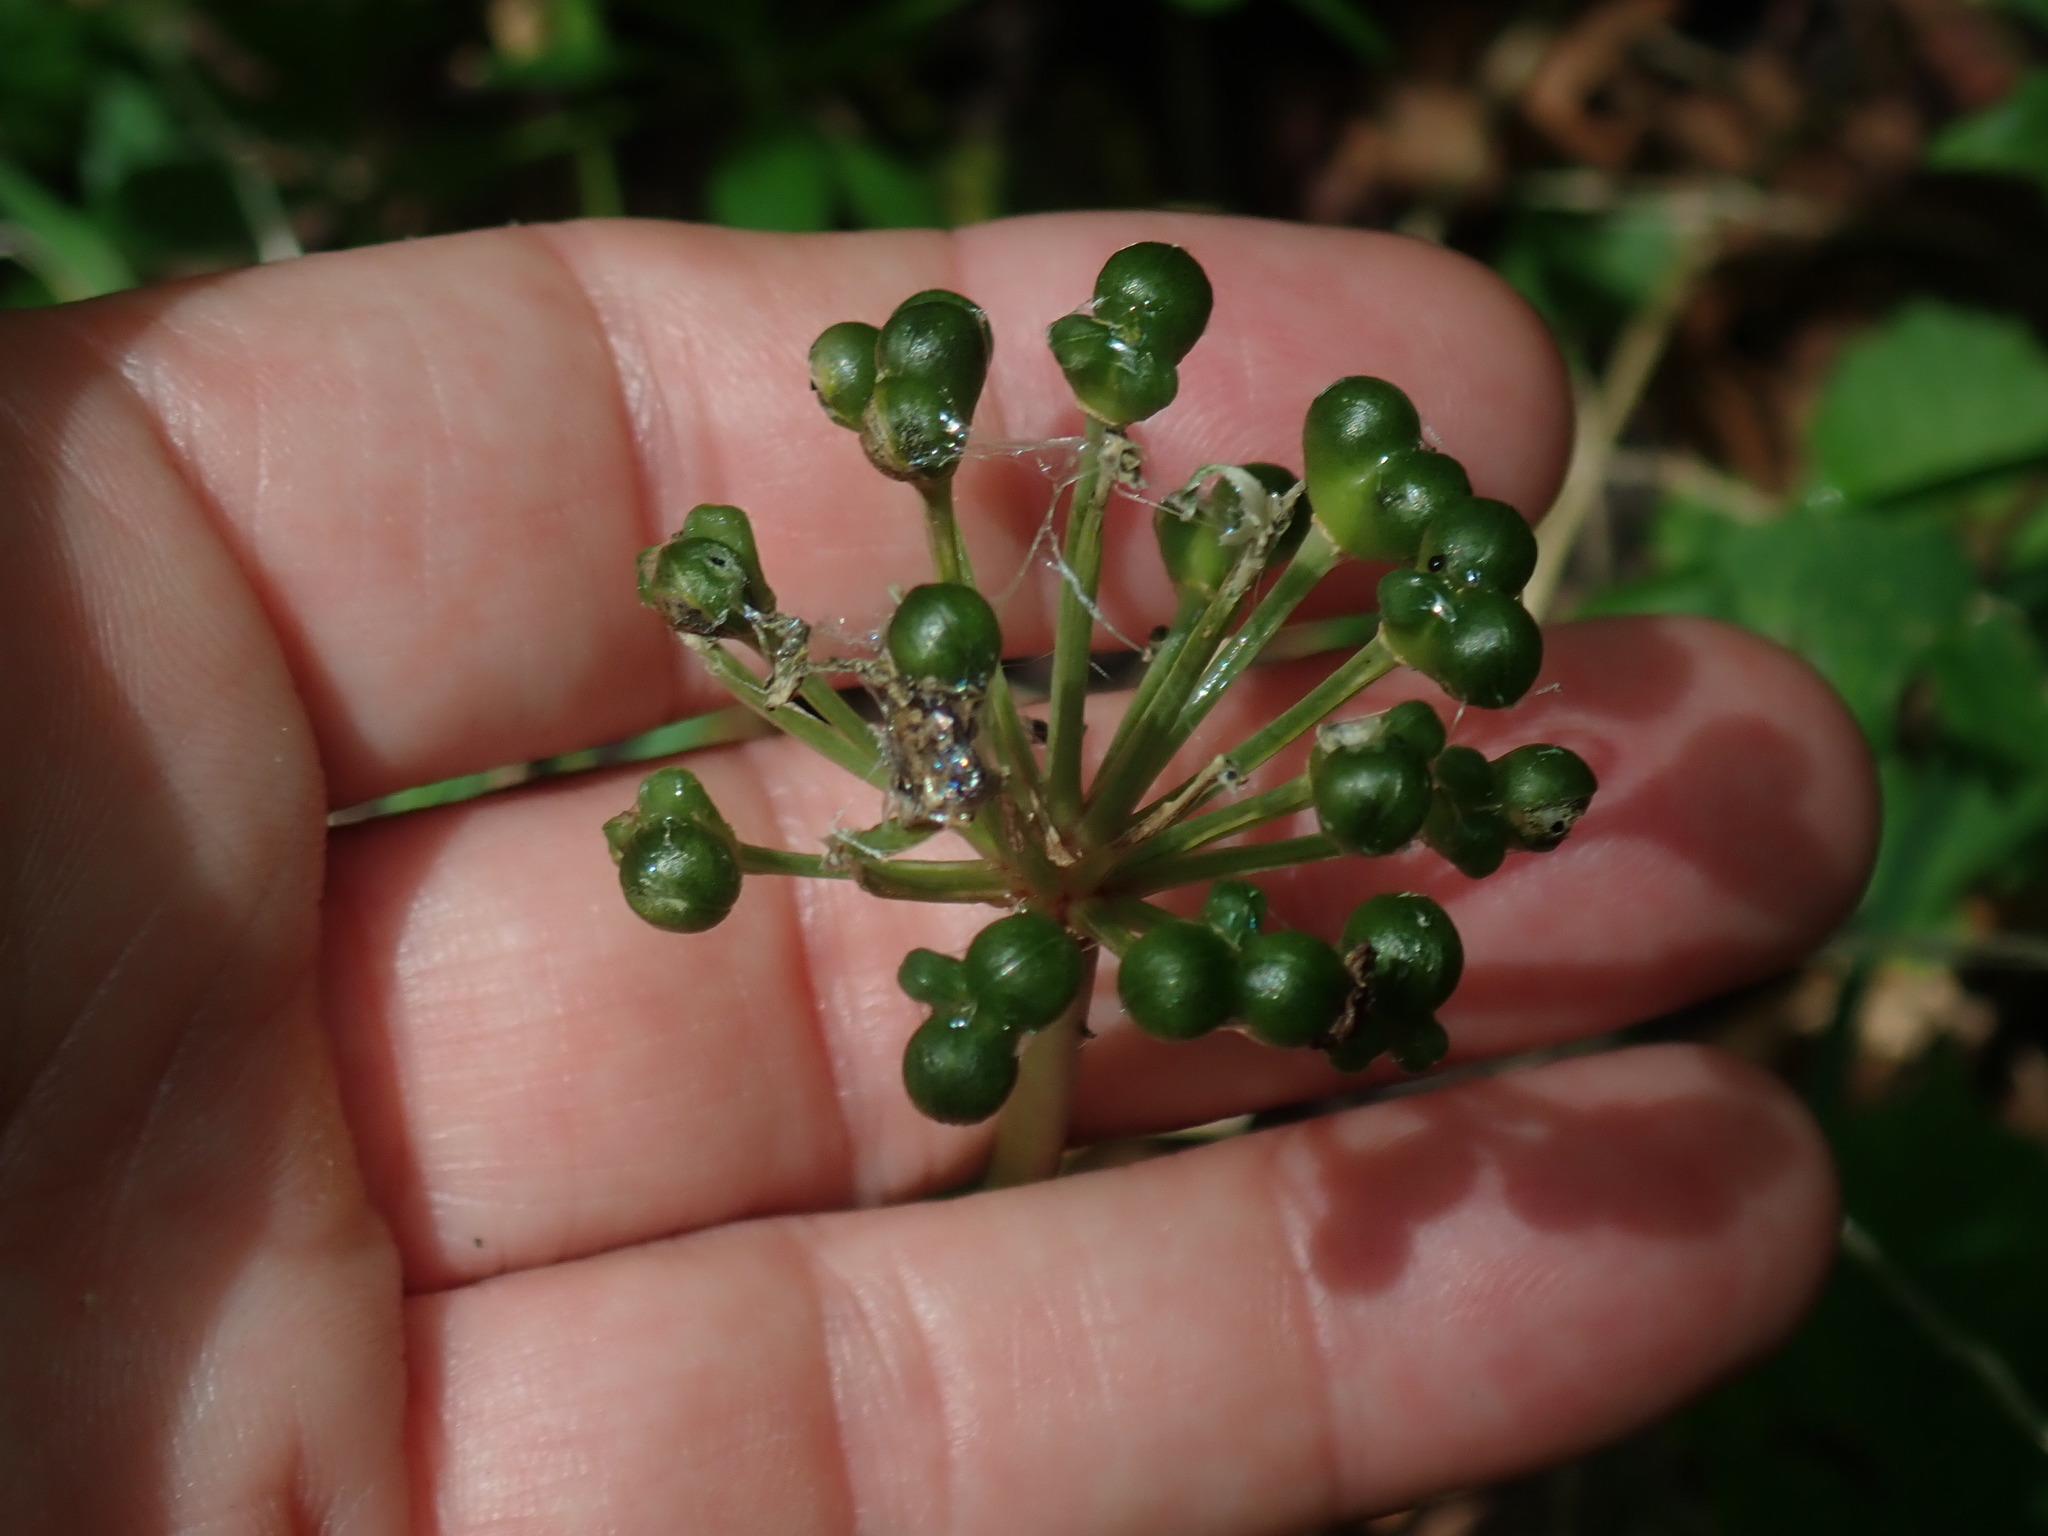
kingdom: Plantae
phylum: Tracheophyta
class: Liliopsida
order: Asparagales
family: Amaryllidaceae
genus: Allium
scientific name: Allium tricoccum
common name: Ramp
